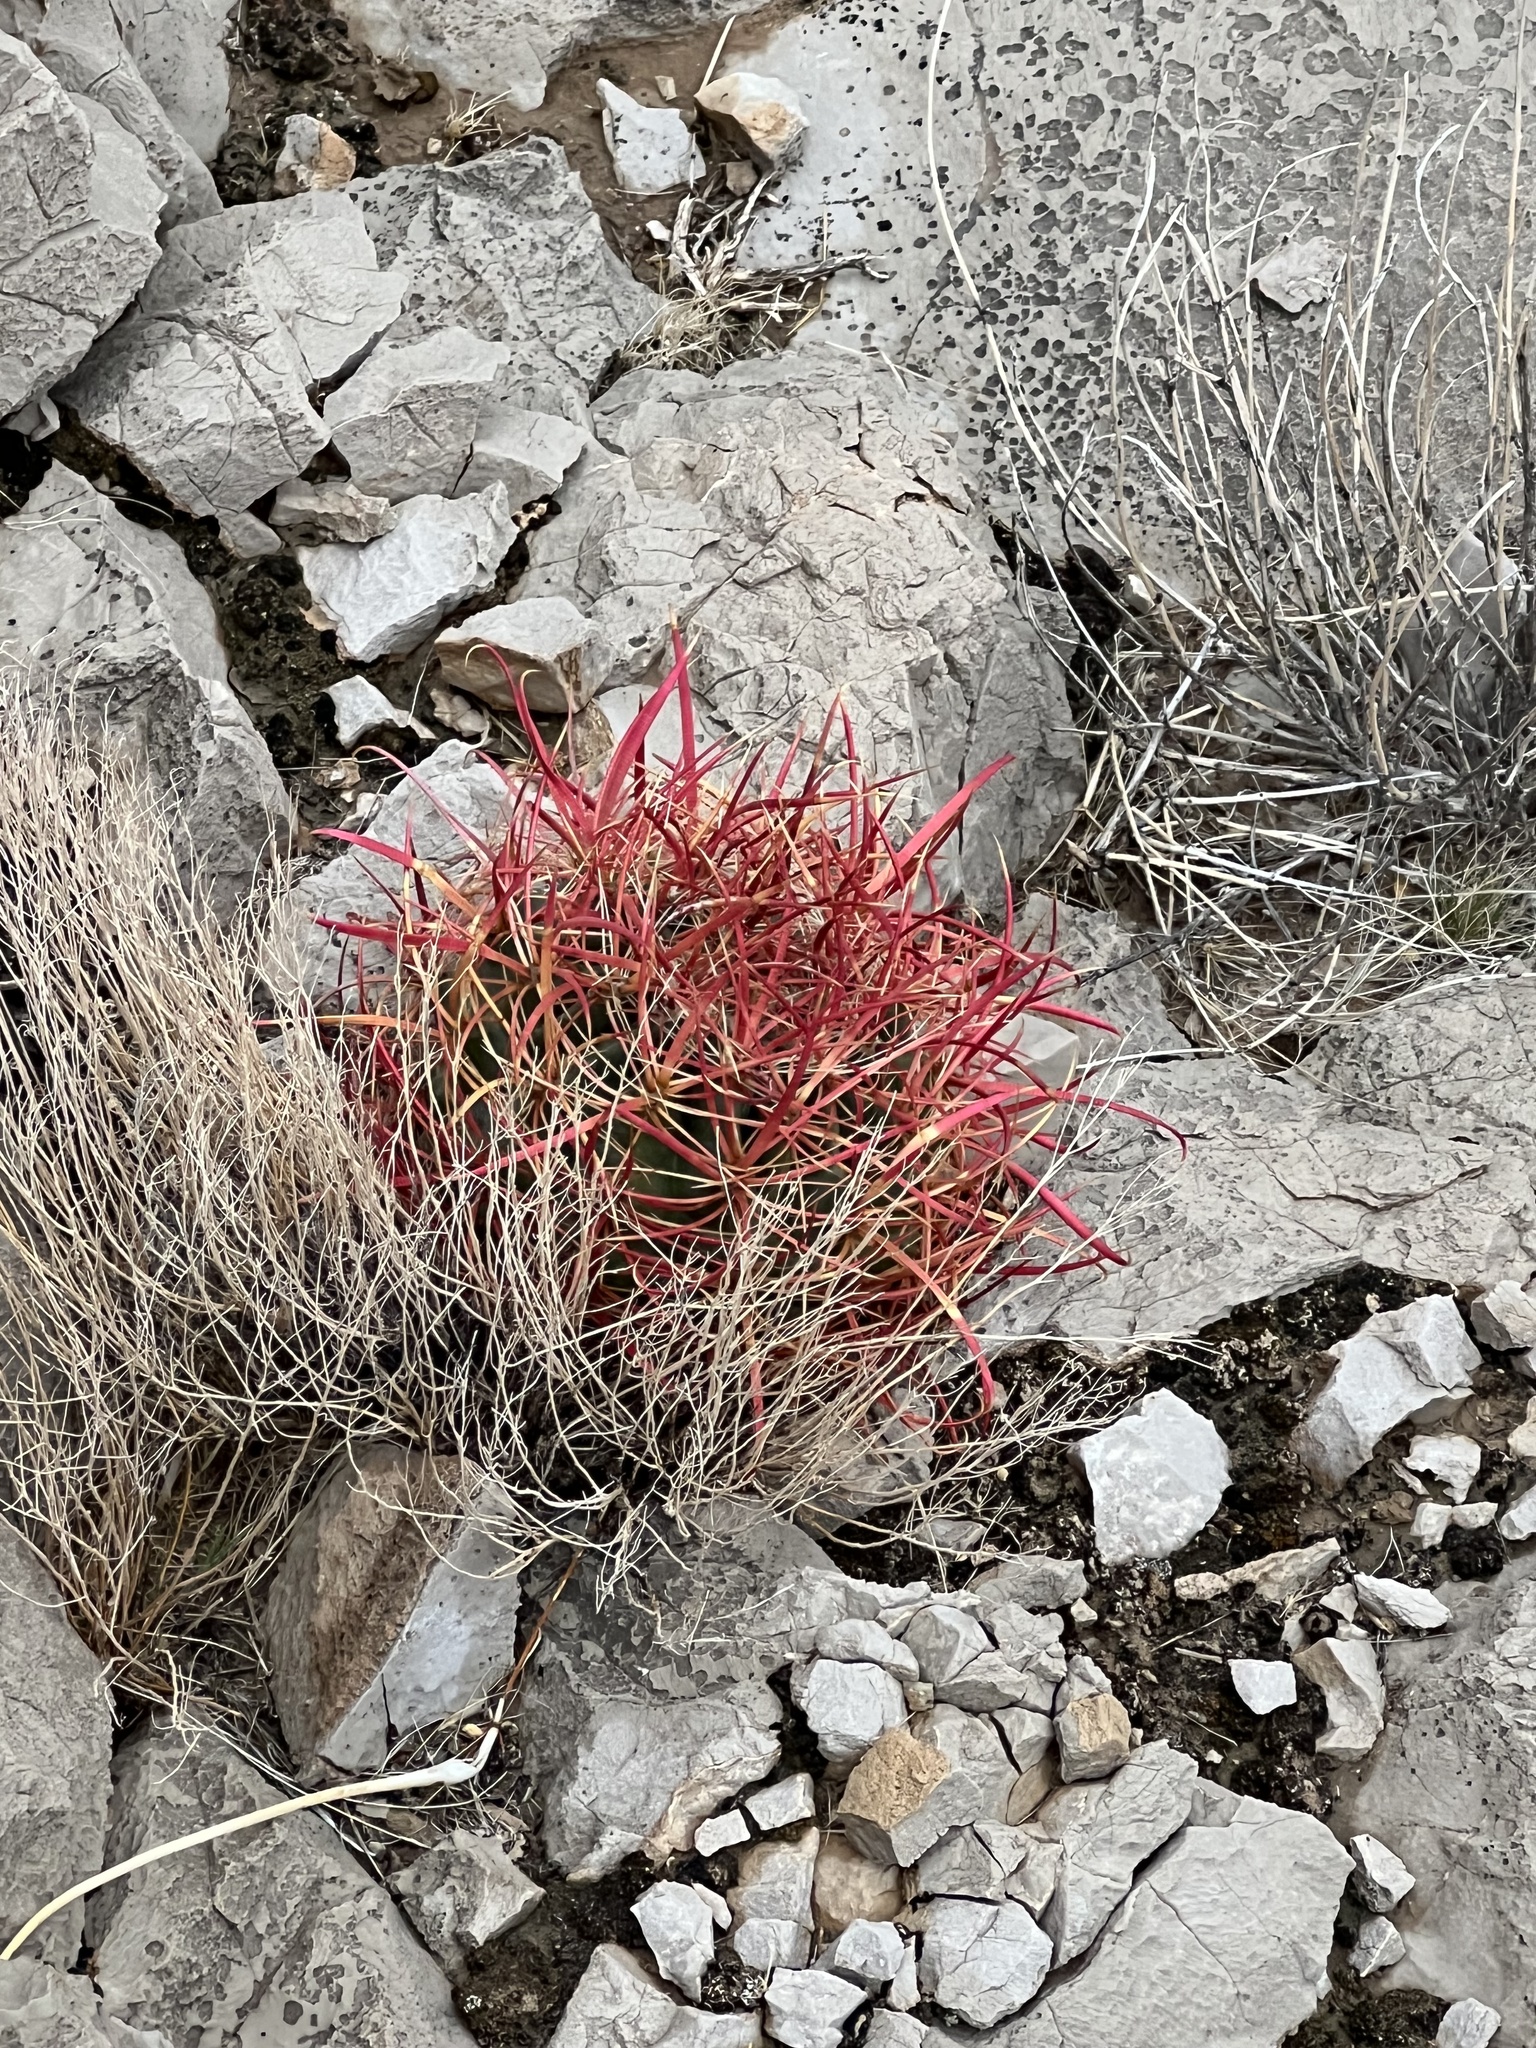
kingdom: Plantae
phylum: Tracheophyta
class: Magnoliopsida
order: Caryophyllales
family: Cactaceae
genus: Ferocactus
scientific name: Ferocactus cylindraceus
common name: California barrel cactus
